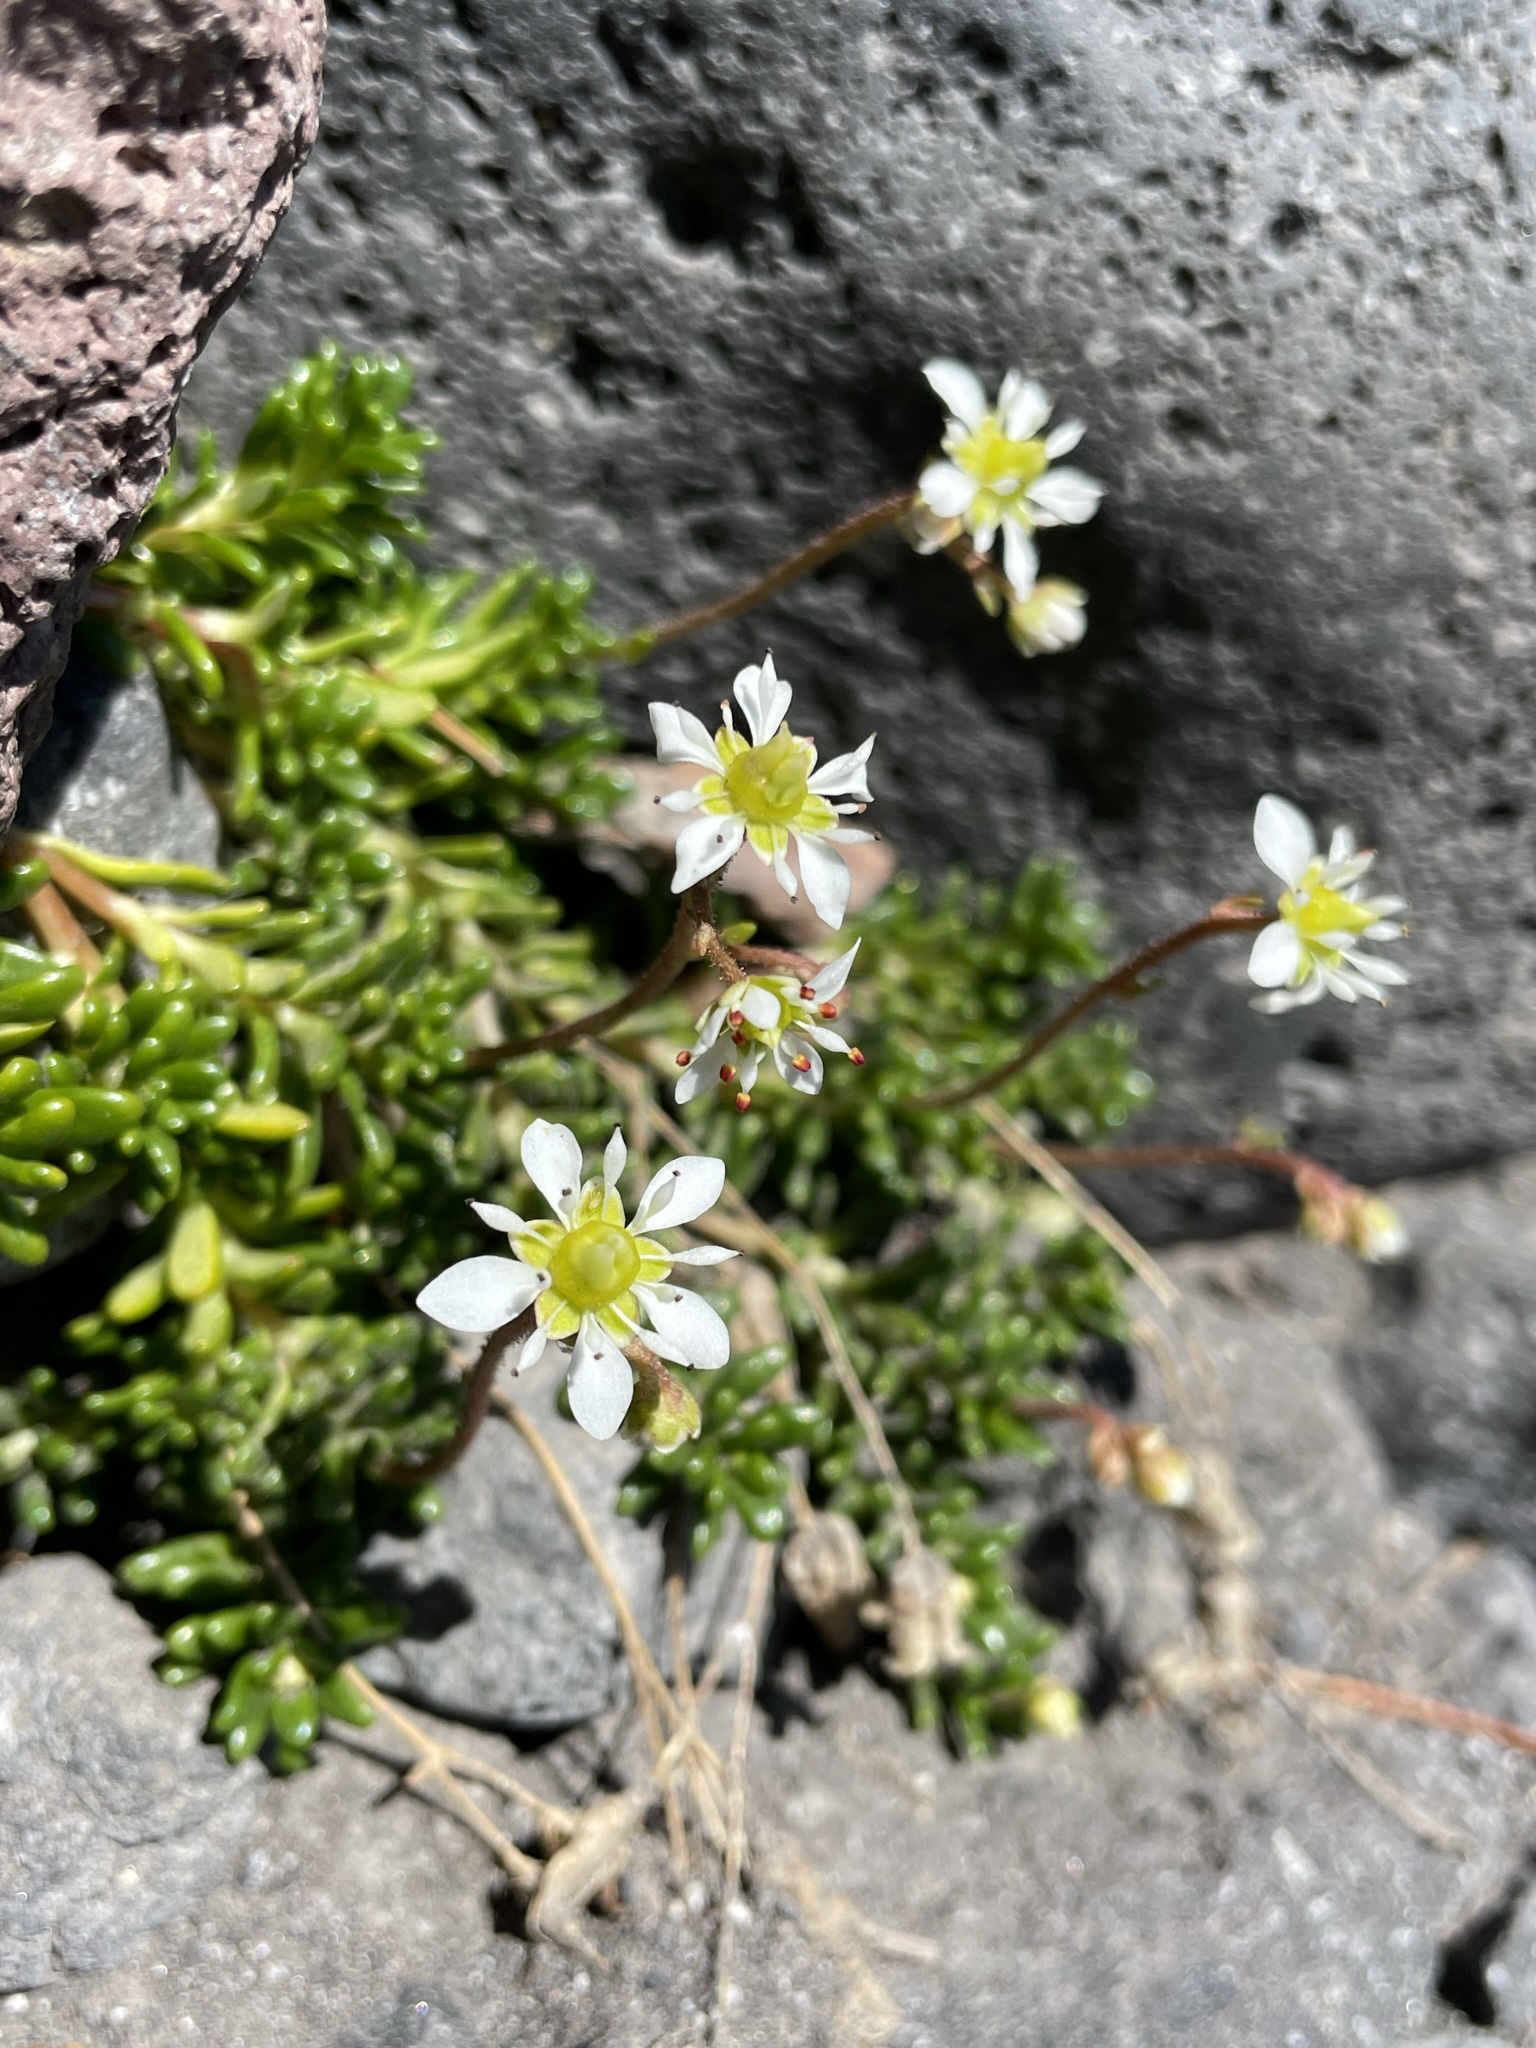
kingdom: Plantae
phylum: Tracheophyta
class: Magnoliopsida
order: Saxifragales
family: Saxifragaceae
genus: Micranthes
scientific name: Micranthes tolmiei
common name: Tolmie's saxifrage
